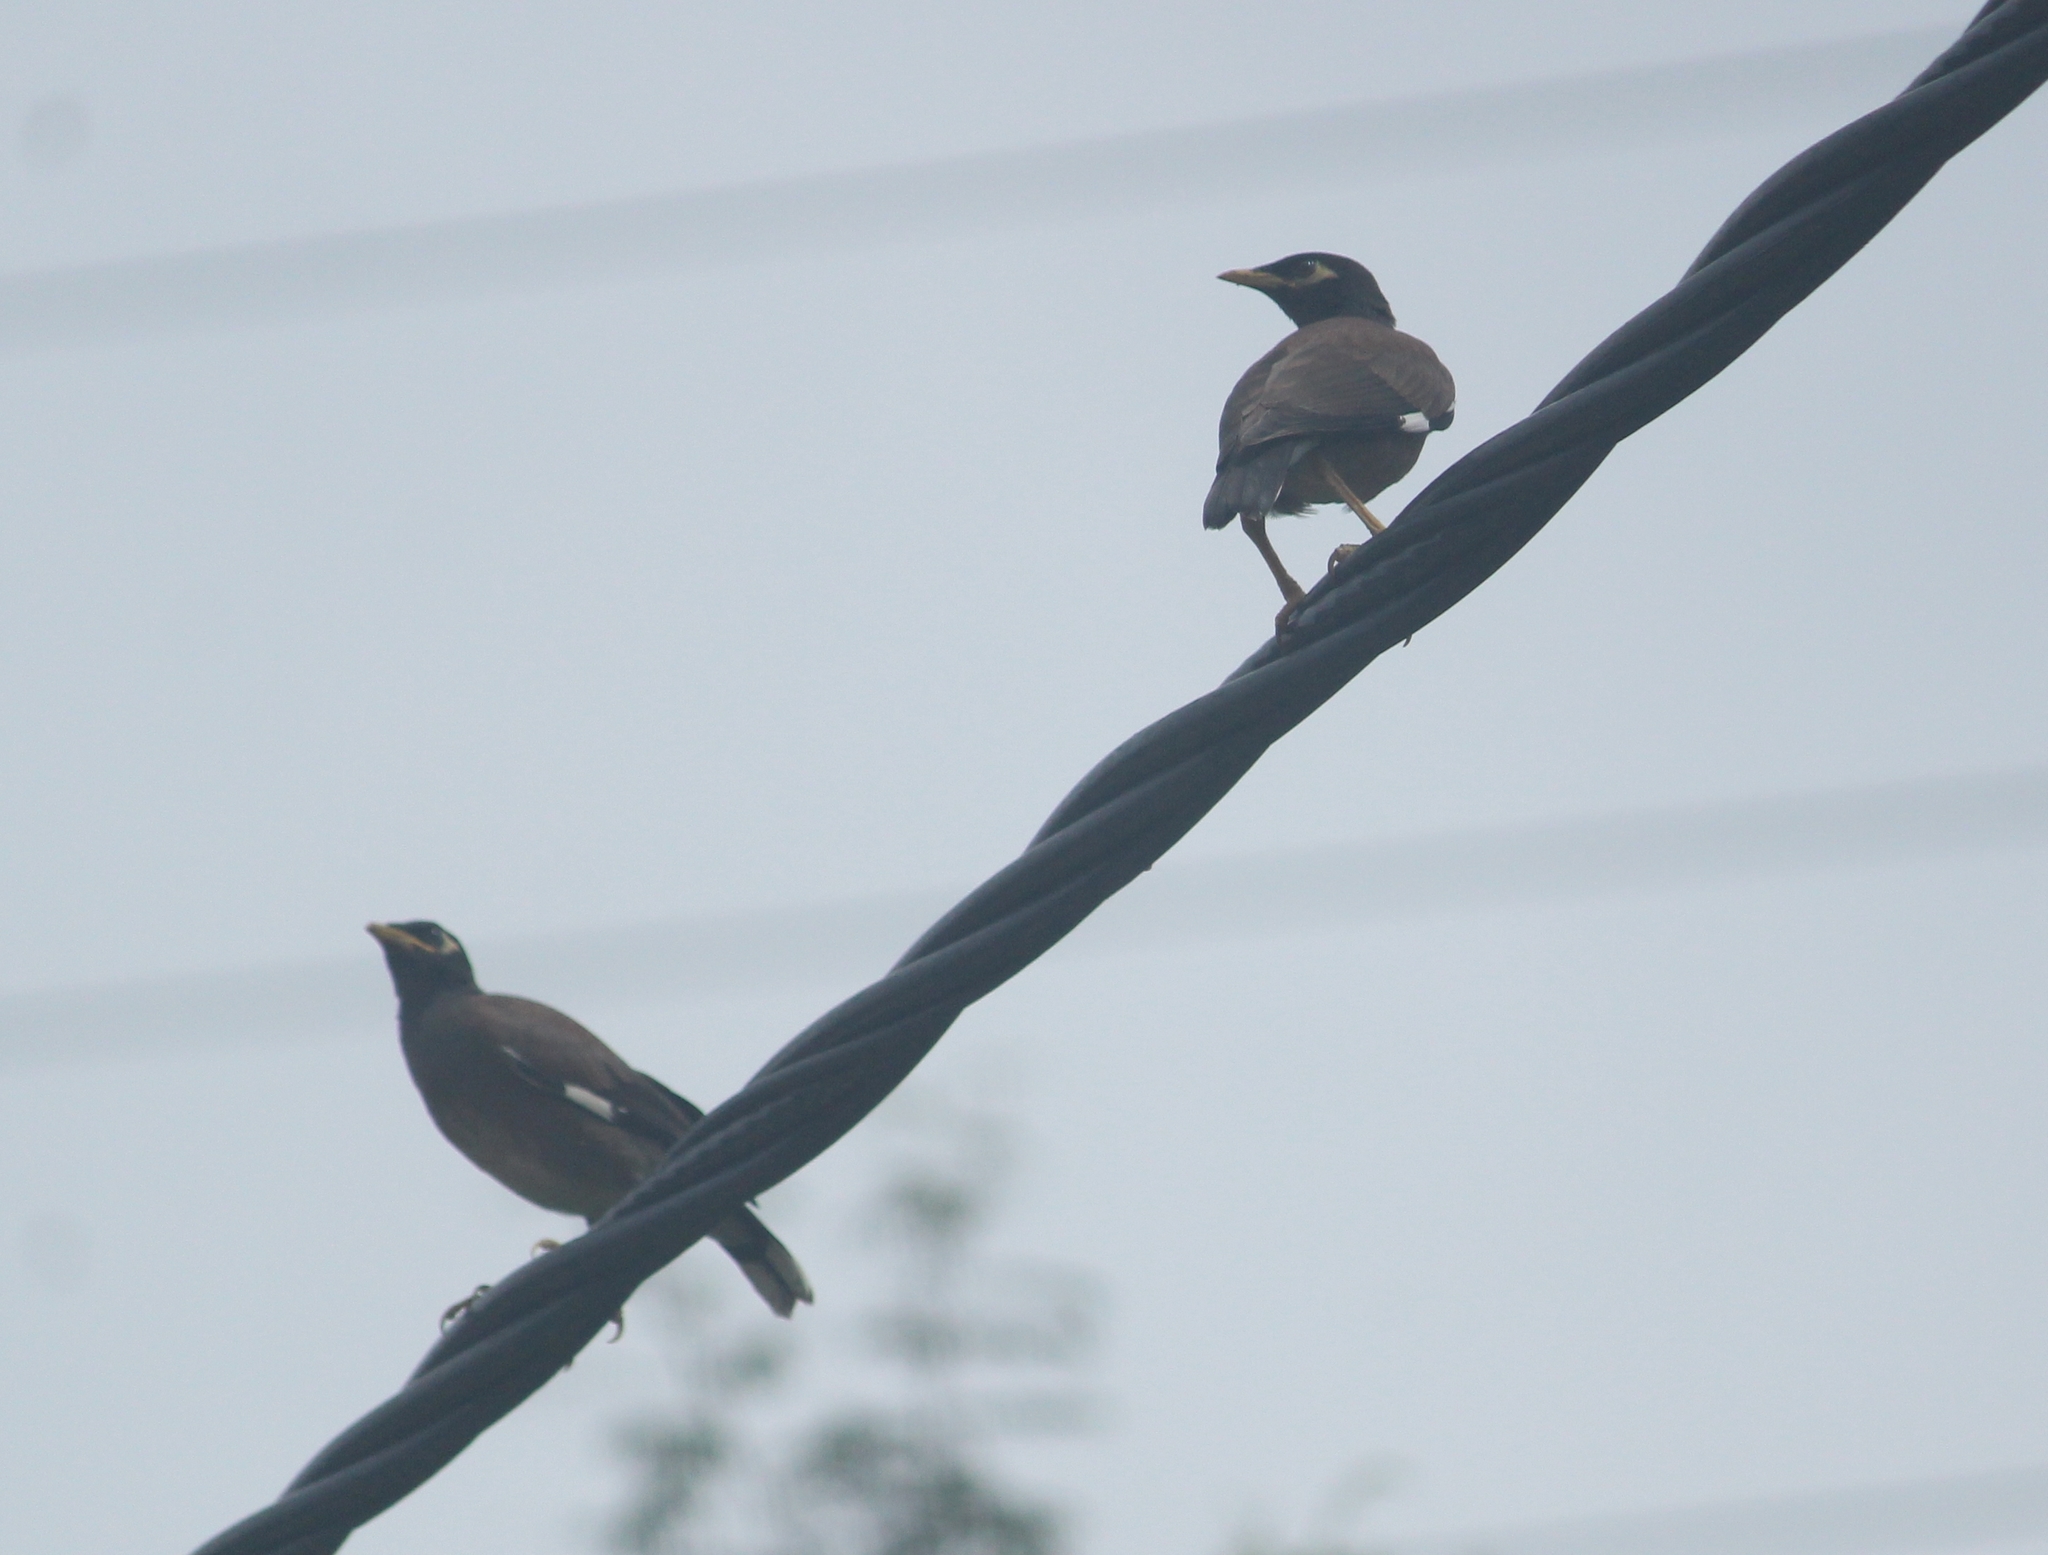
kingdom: Animalia
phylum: Chordata
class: Aves
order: Passeriformes
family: Sturnidae
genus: Acridotheres
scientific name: Acridotheres tristis
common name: Common myna
